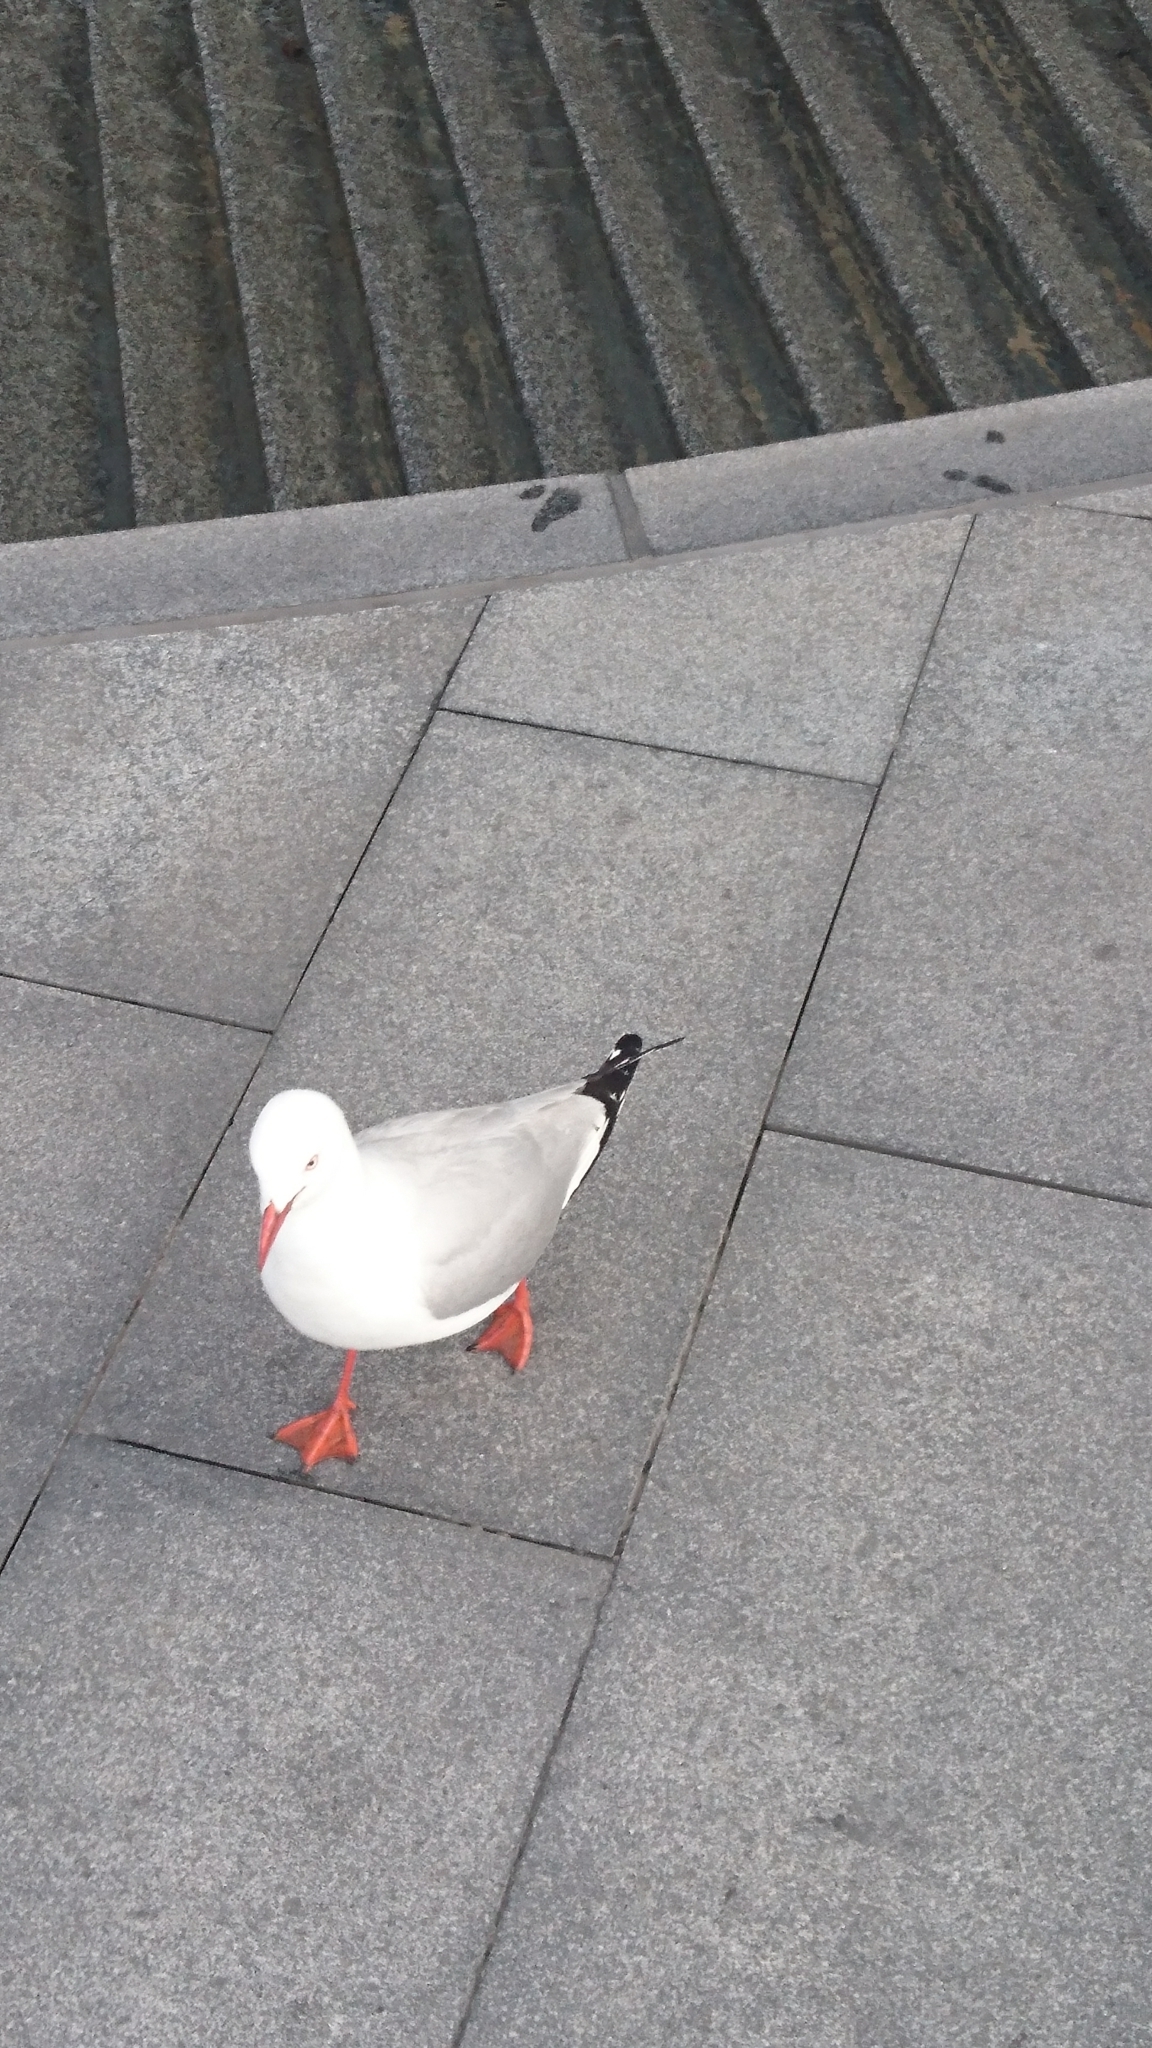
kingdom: Animalia
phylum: Chordata
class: Aves
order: Charadriiformes
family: Laridae
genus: Chroicocephalus
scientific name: Chroicocephalus novaehollandiae
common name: Silver gull
